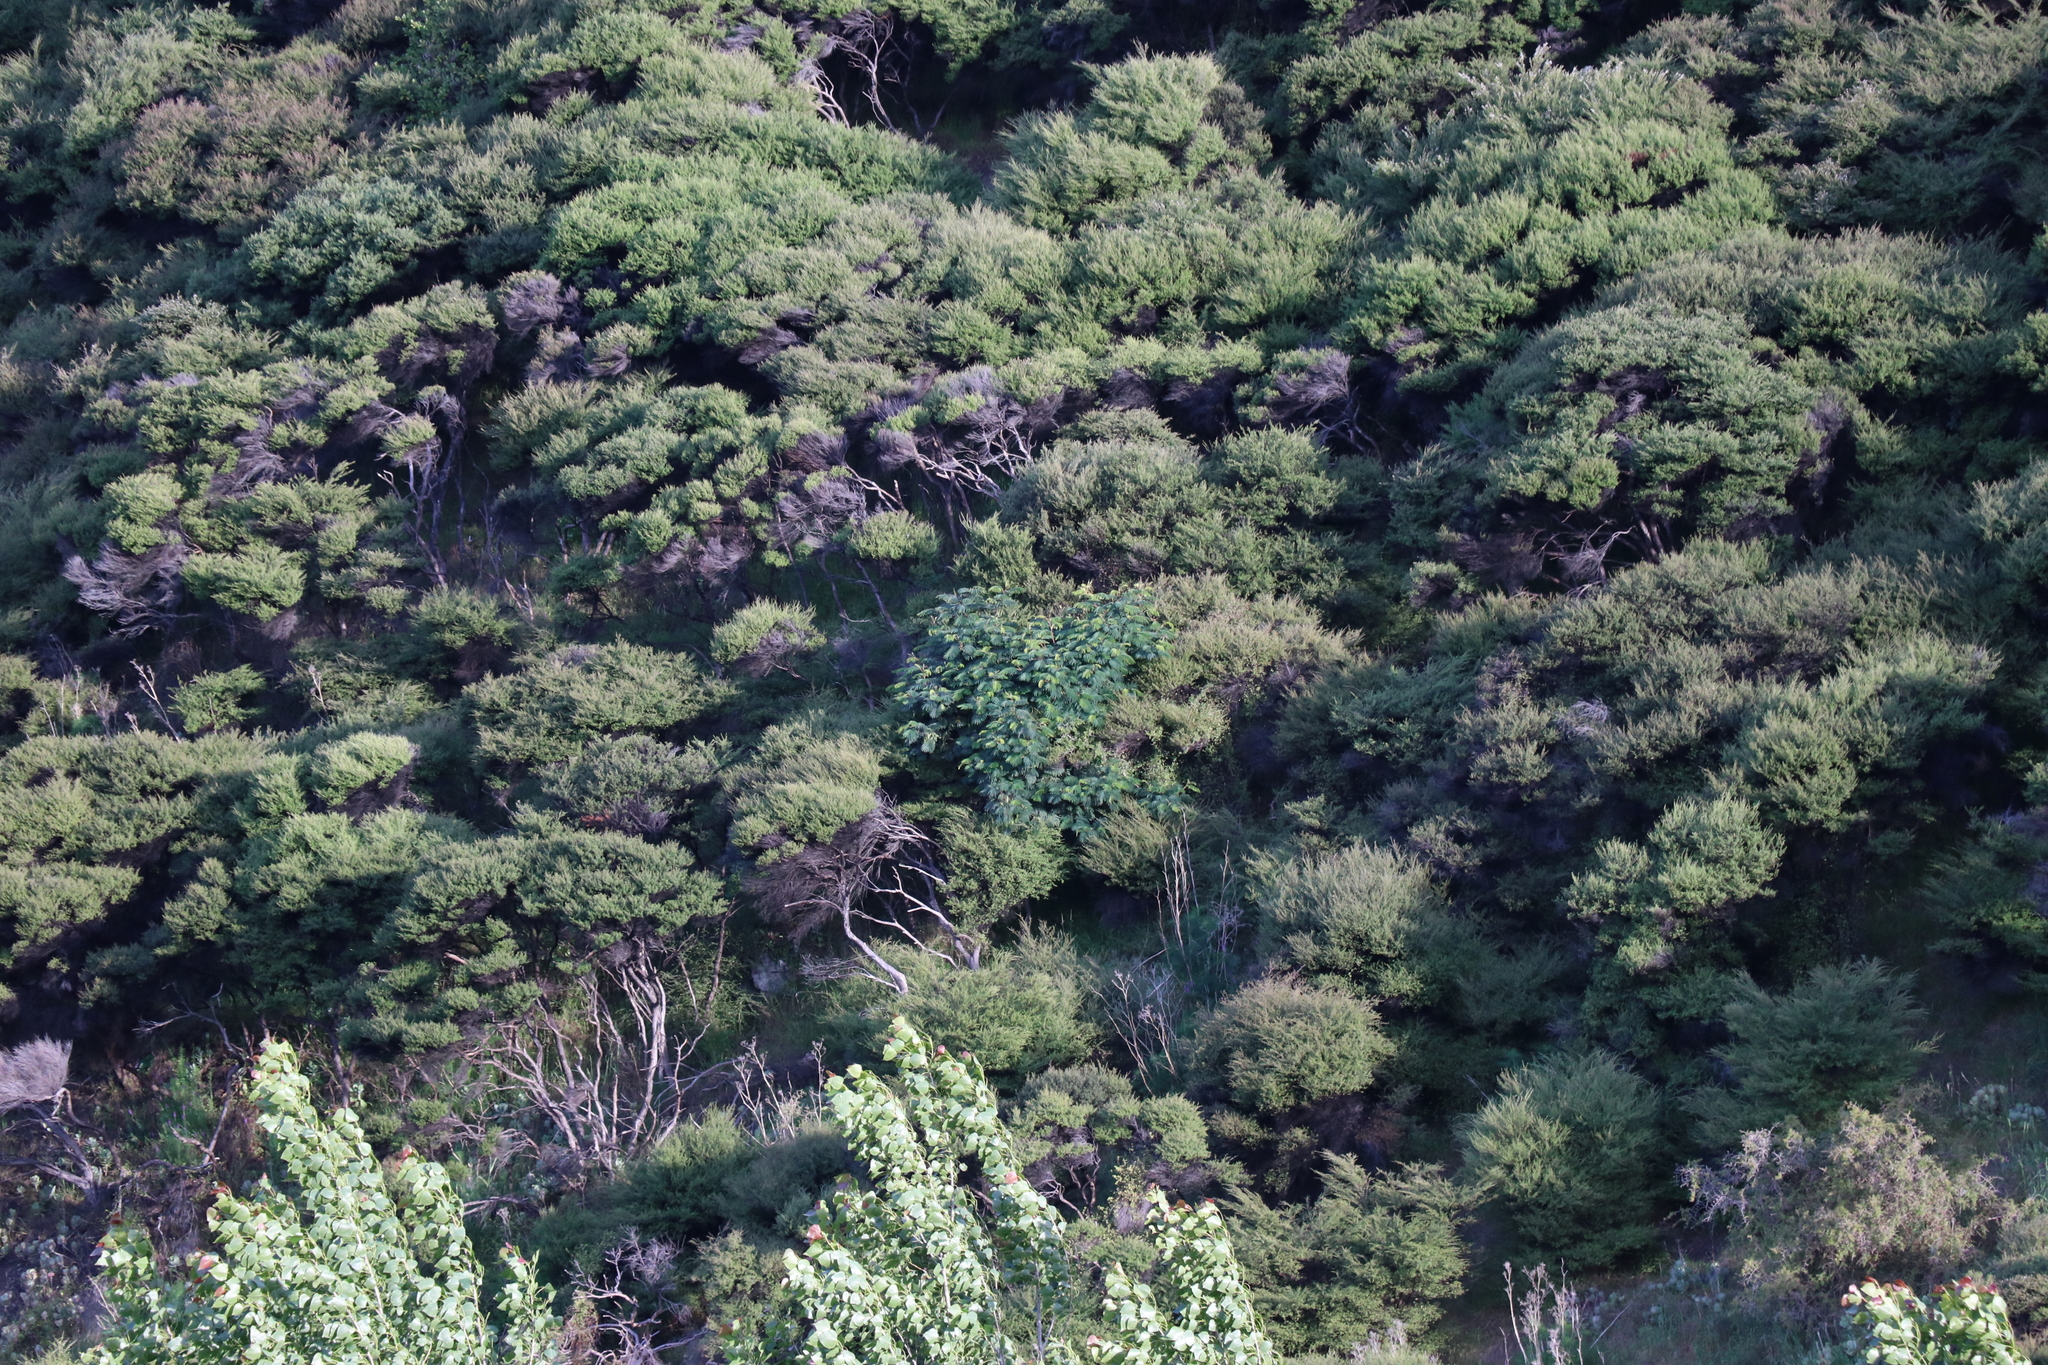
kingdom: Plantae
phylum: Tracheophyta
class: Magnoliopsida
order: Fabales
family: Fabaceae
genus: Paraserianthes
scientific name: Paraserianthes lophantha
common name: Plume albizia
